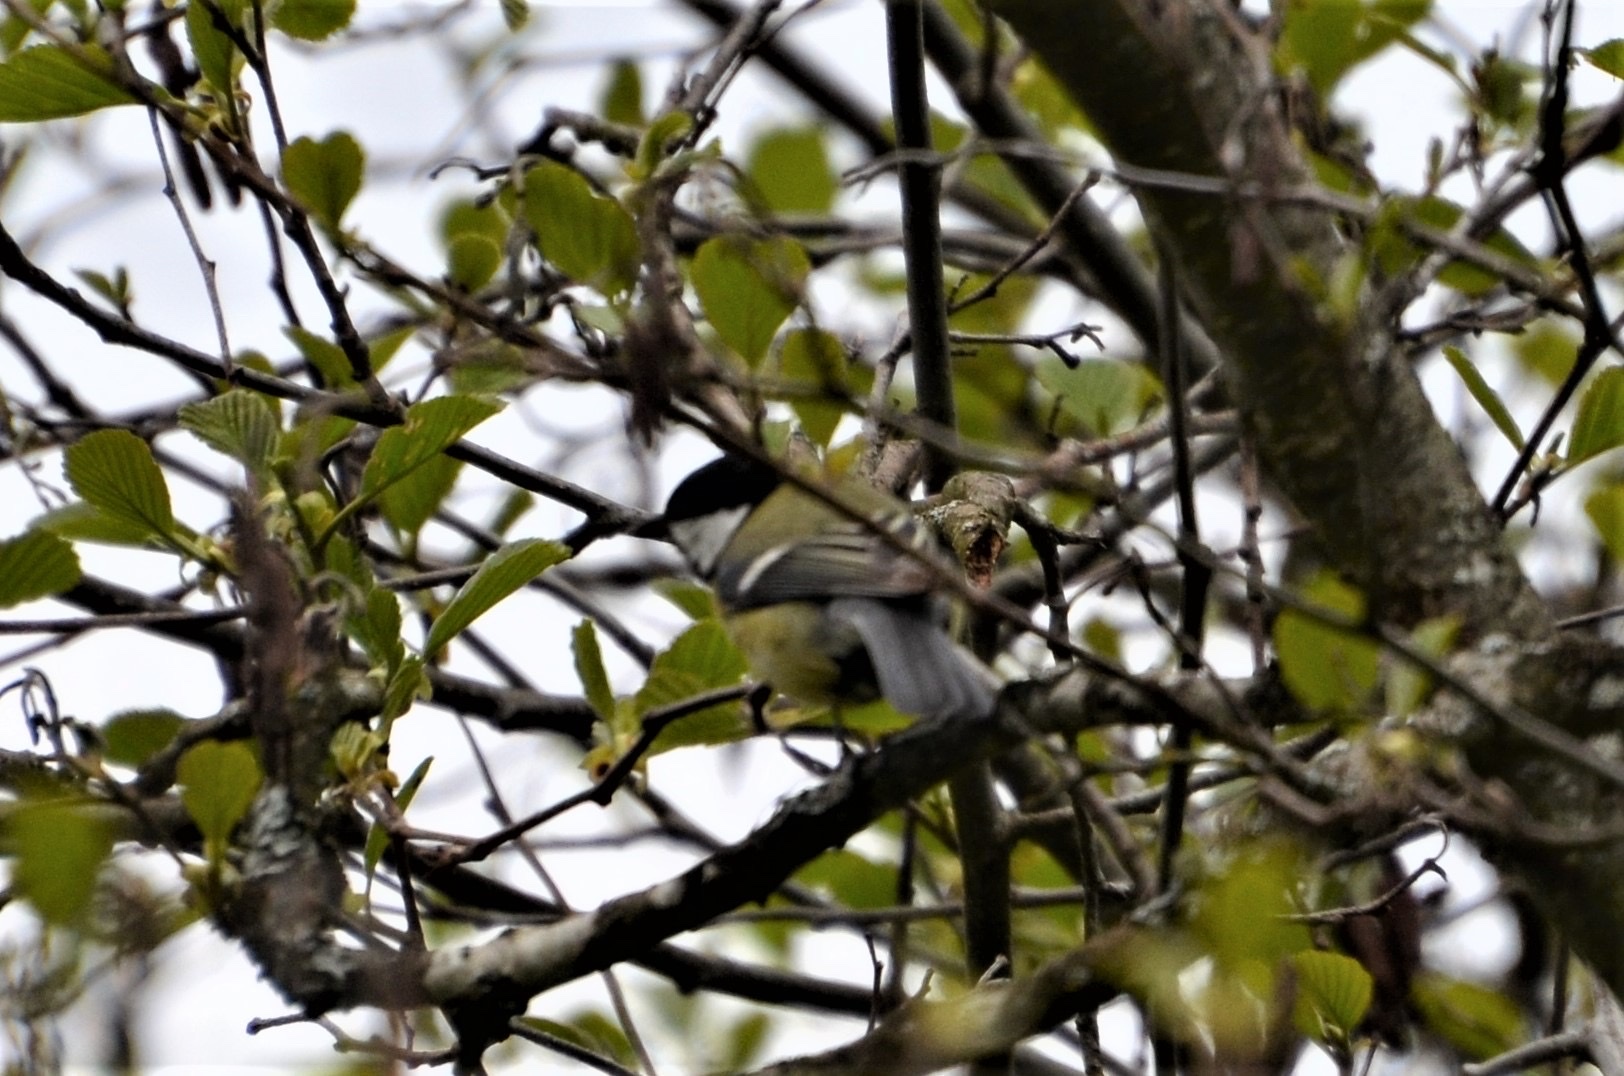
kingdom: Animalia
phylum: Chordata
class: Aves
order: Passeriformes
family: Paridae
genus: Parus
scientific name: Parus major
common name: Great tit
